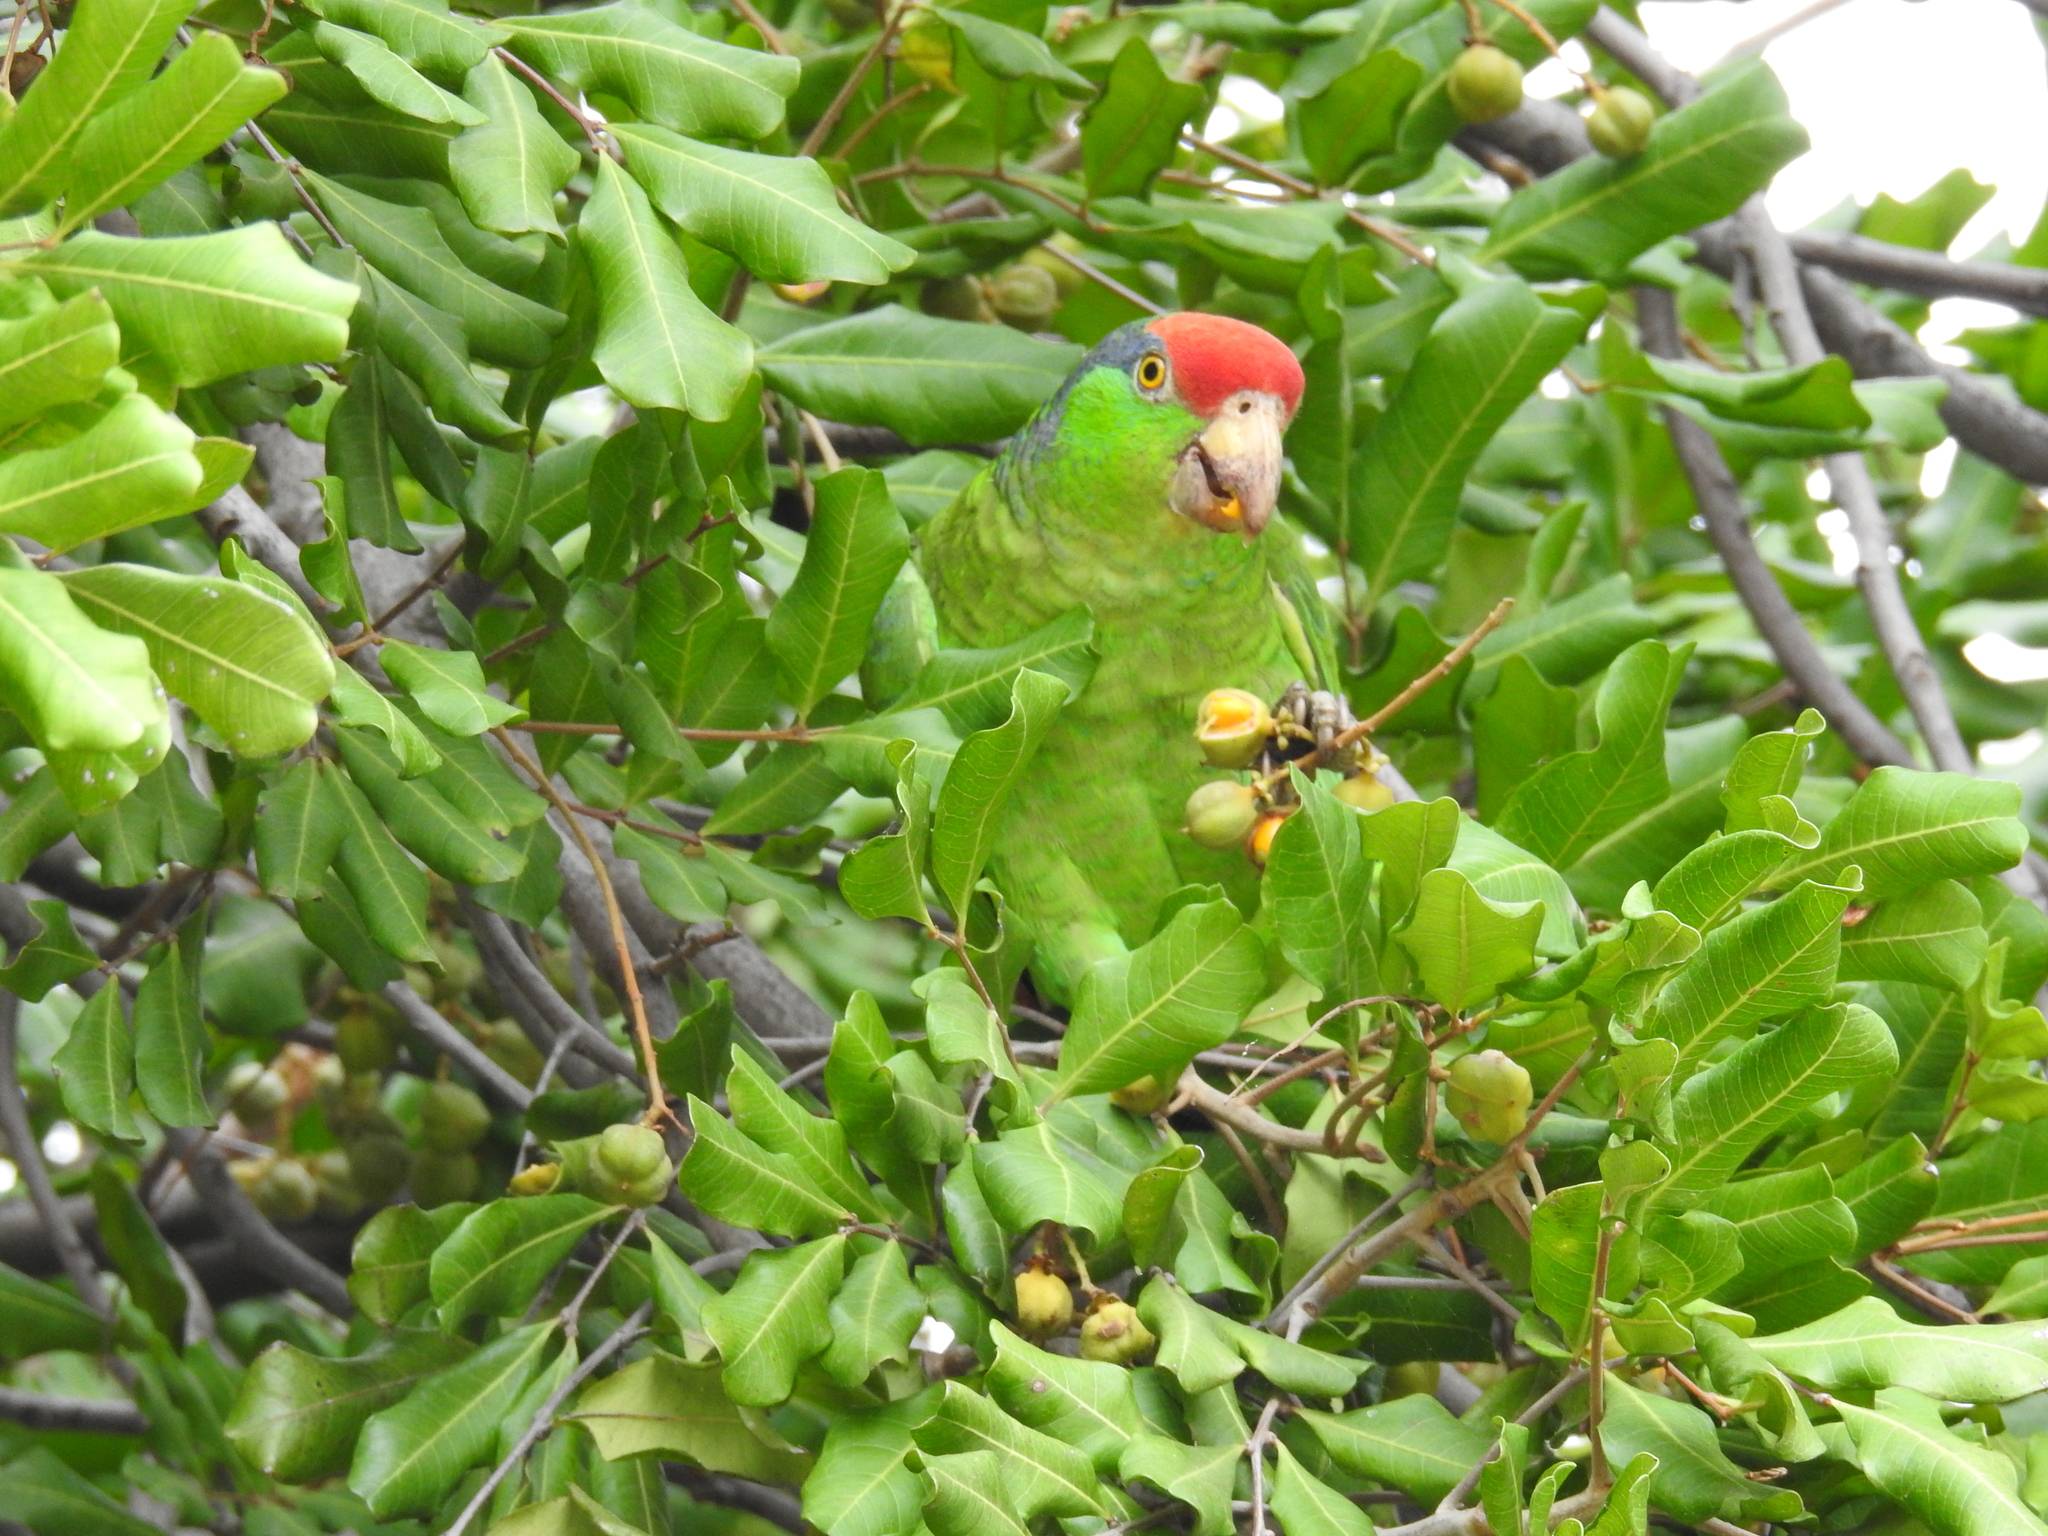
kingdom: Animalia
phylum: Chordata
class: Aves
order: Psittaciformes
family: Psittacidae
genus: Amazona
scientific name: Amazona viridigenalis
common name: Red-crowned amazon
